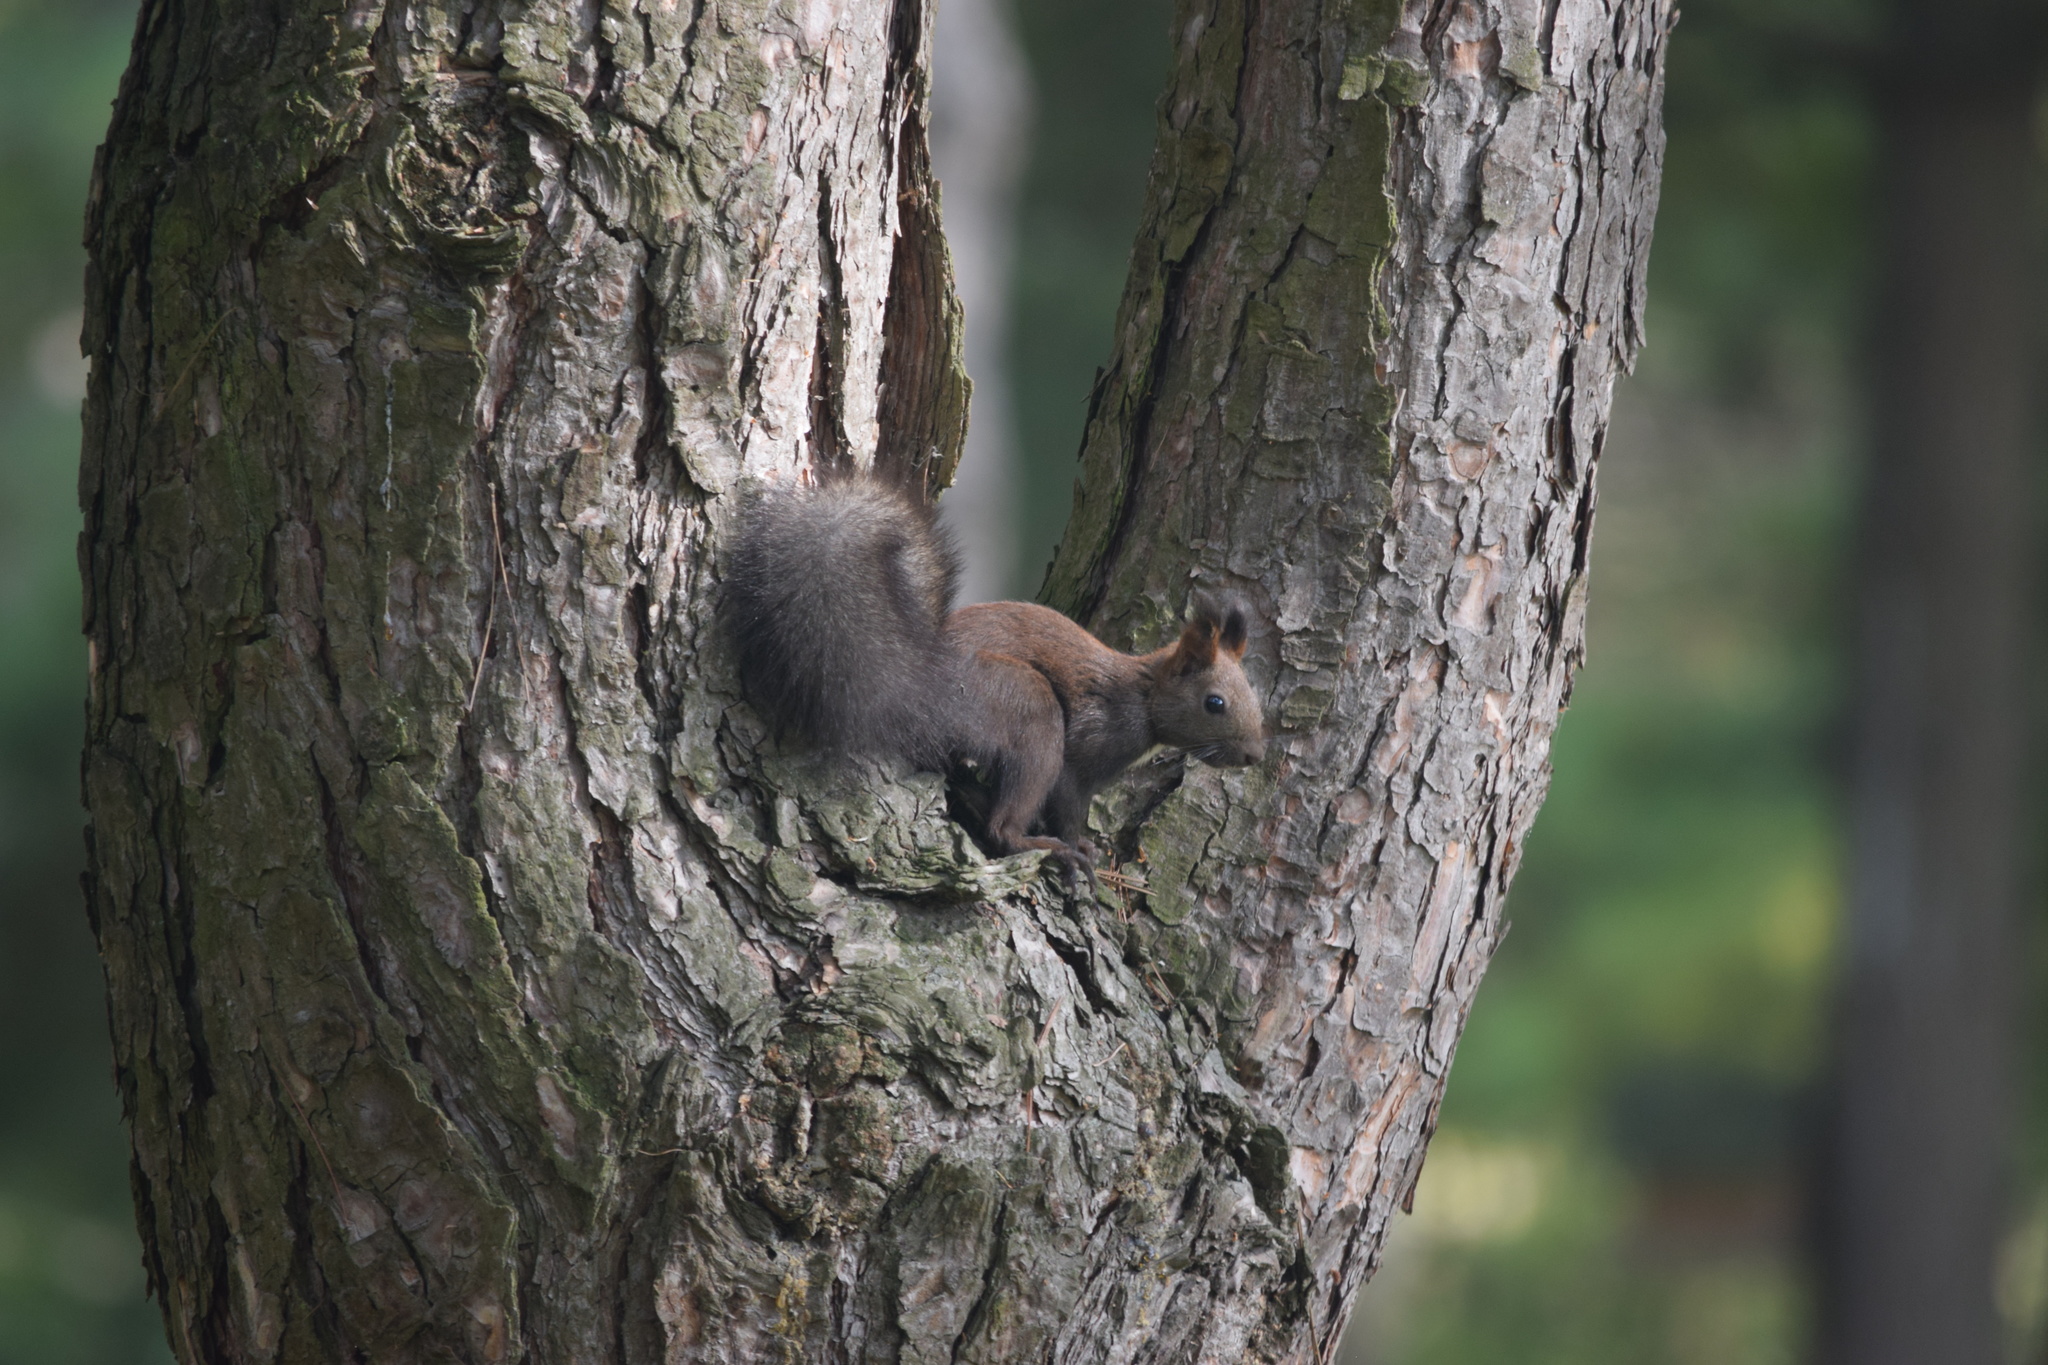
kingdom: Animalia
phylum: Chordata
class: Mammalia
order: Rodentia
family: Sciuridae
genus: Sciurus
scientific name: Sciurus vulgaris
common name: Eurasian red squirrel
